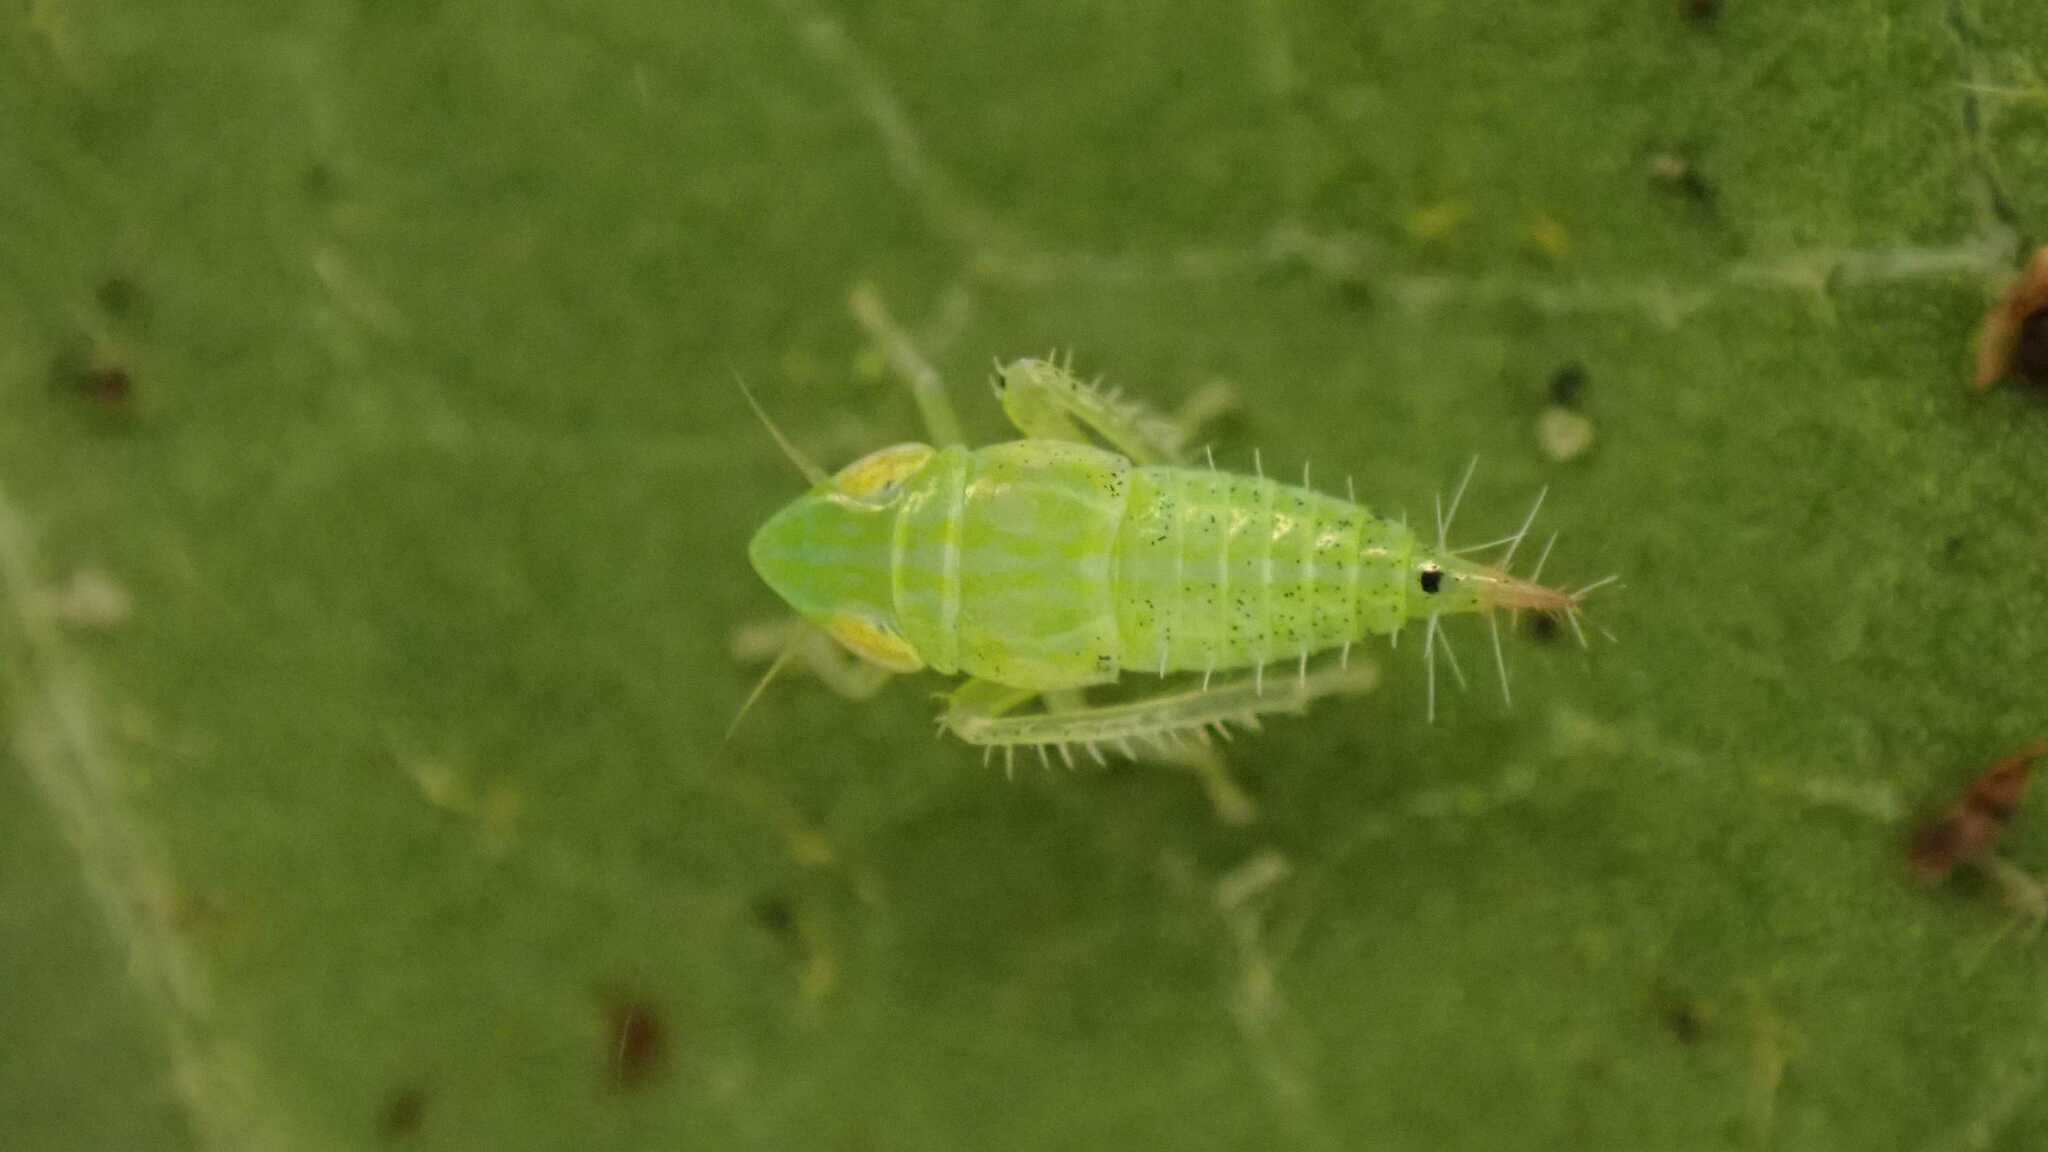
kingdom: Animalia
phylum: Arthropoda
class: Insecta
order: Hemiptera
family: Cicadellidae
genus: Fieberiella
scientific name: Fieberiella
